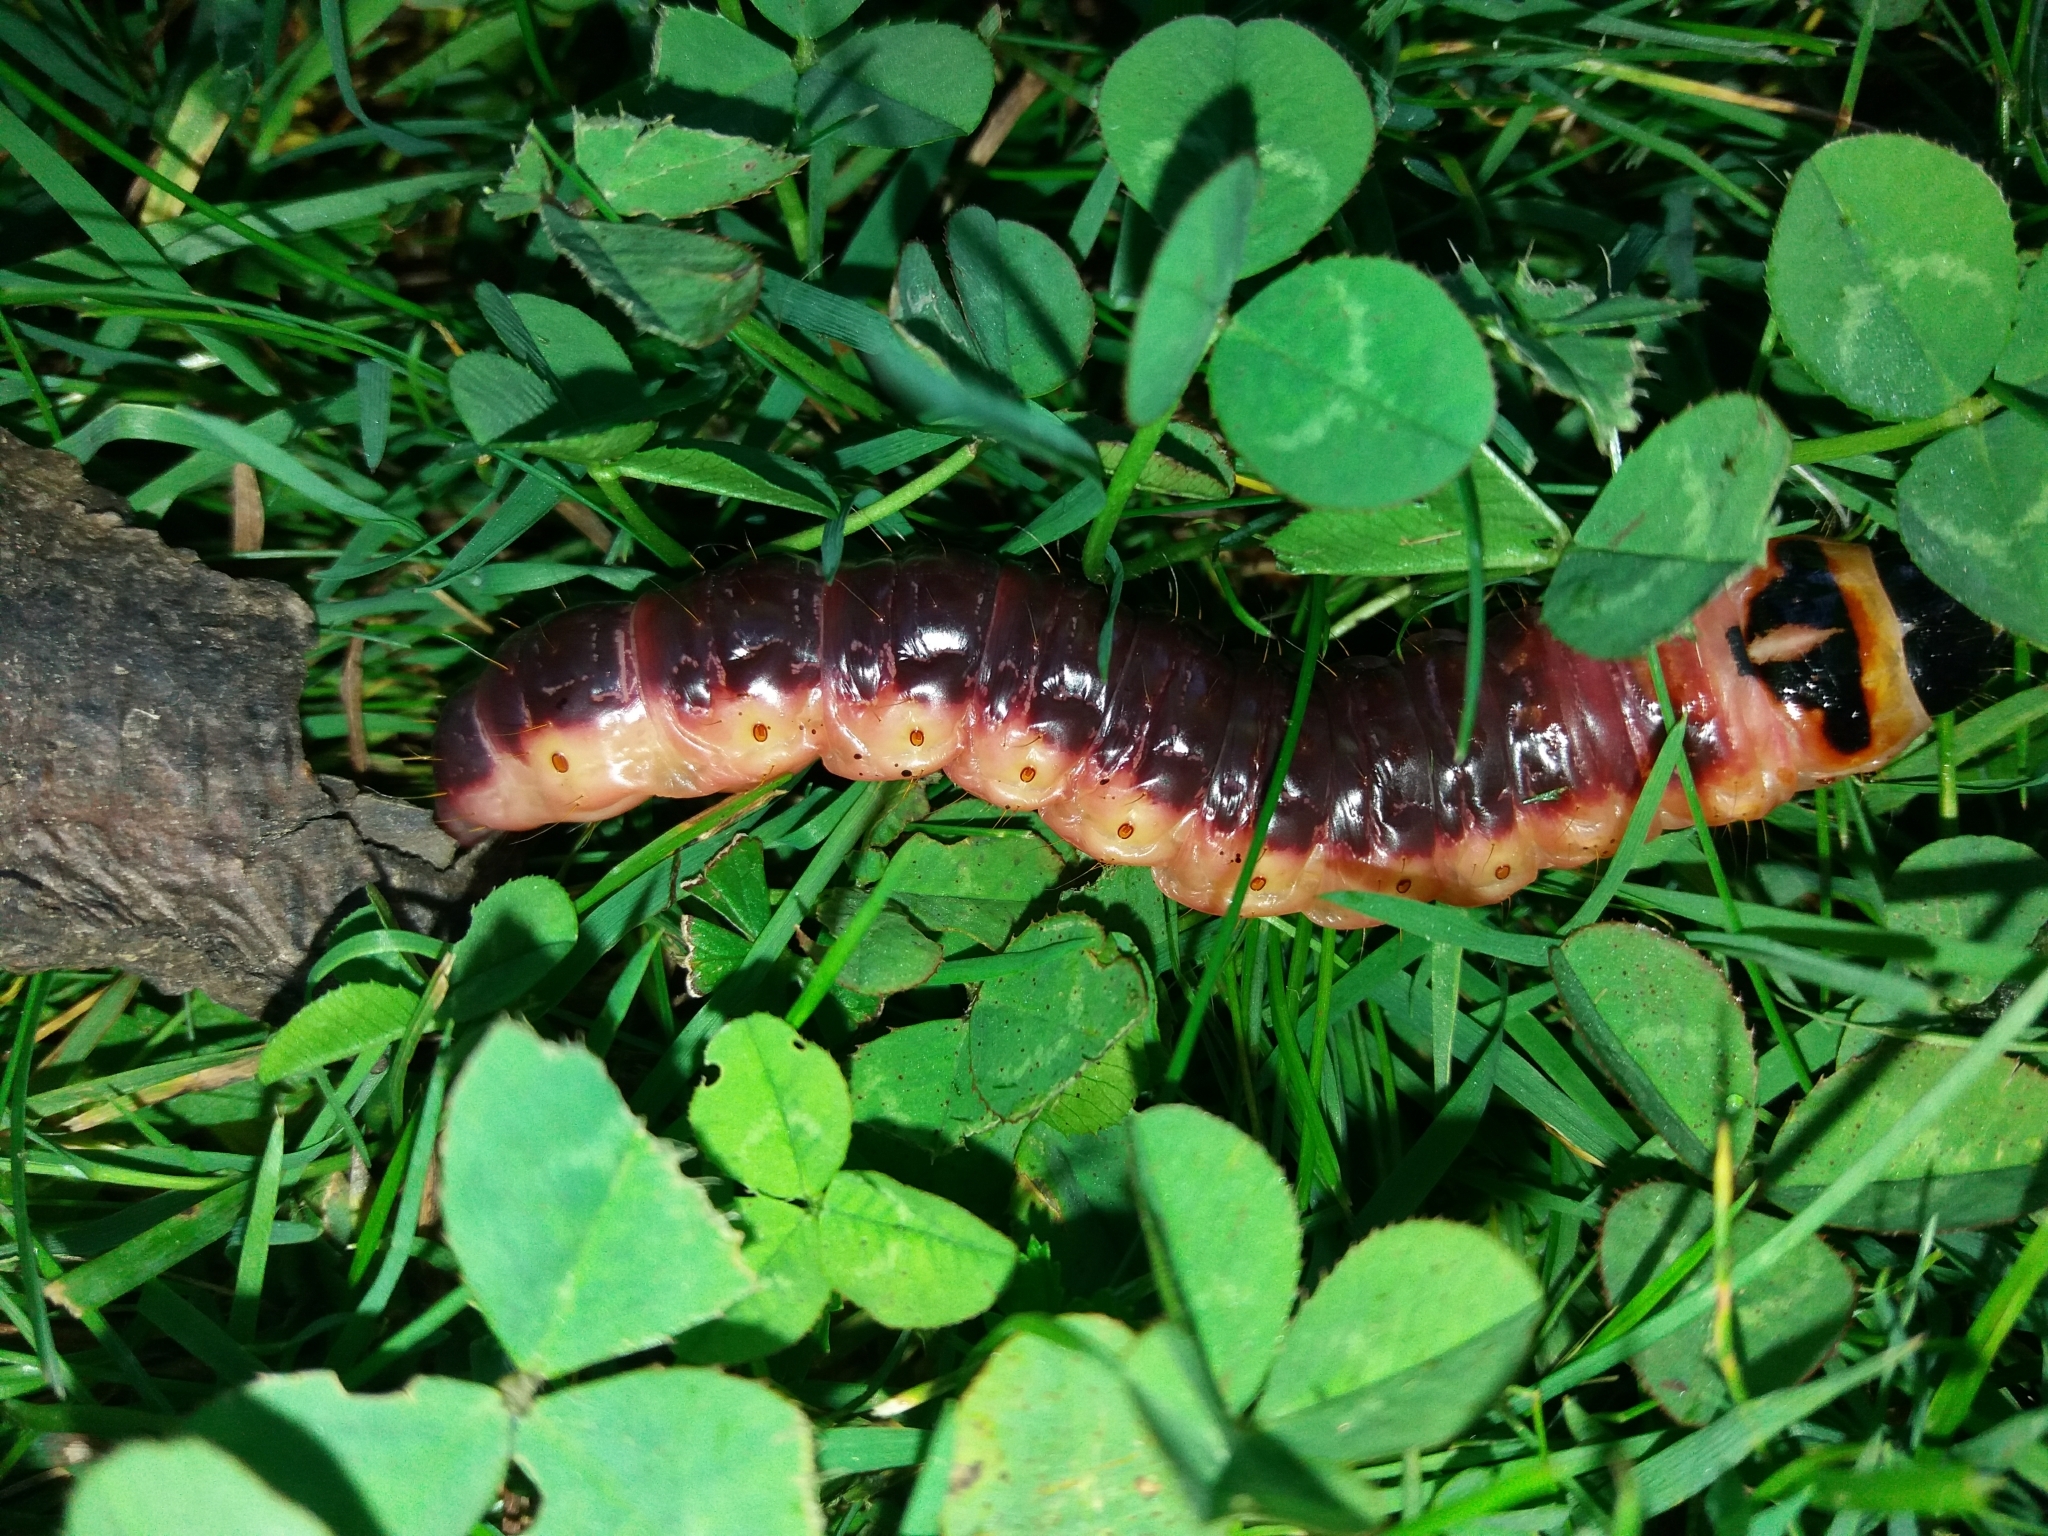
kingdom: Animalia
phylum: Arthropoda
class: Insecta
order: Lepidoptera
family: Cossidae
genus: Cossus
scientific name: Cossus cossus
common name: Goat moth
